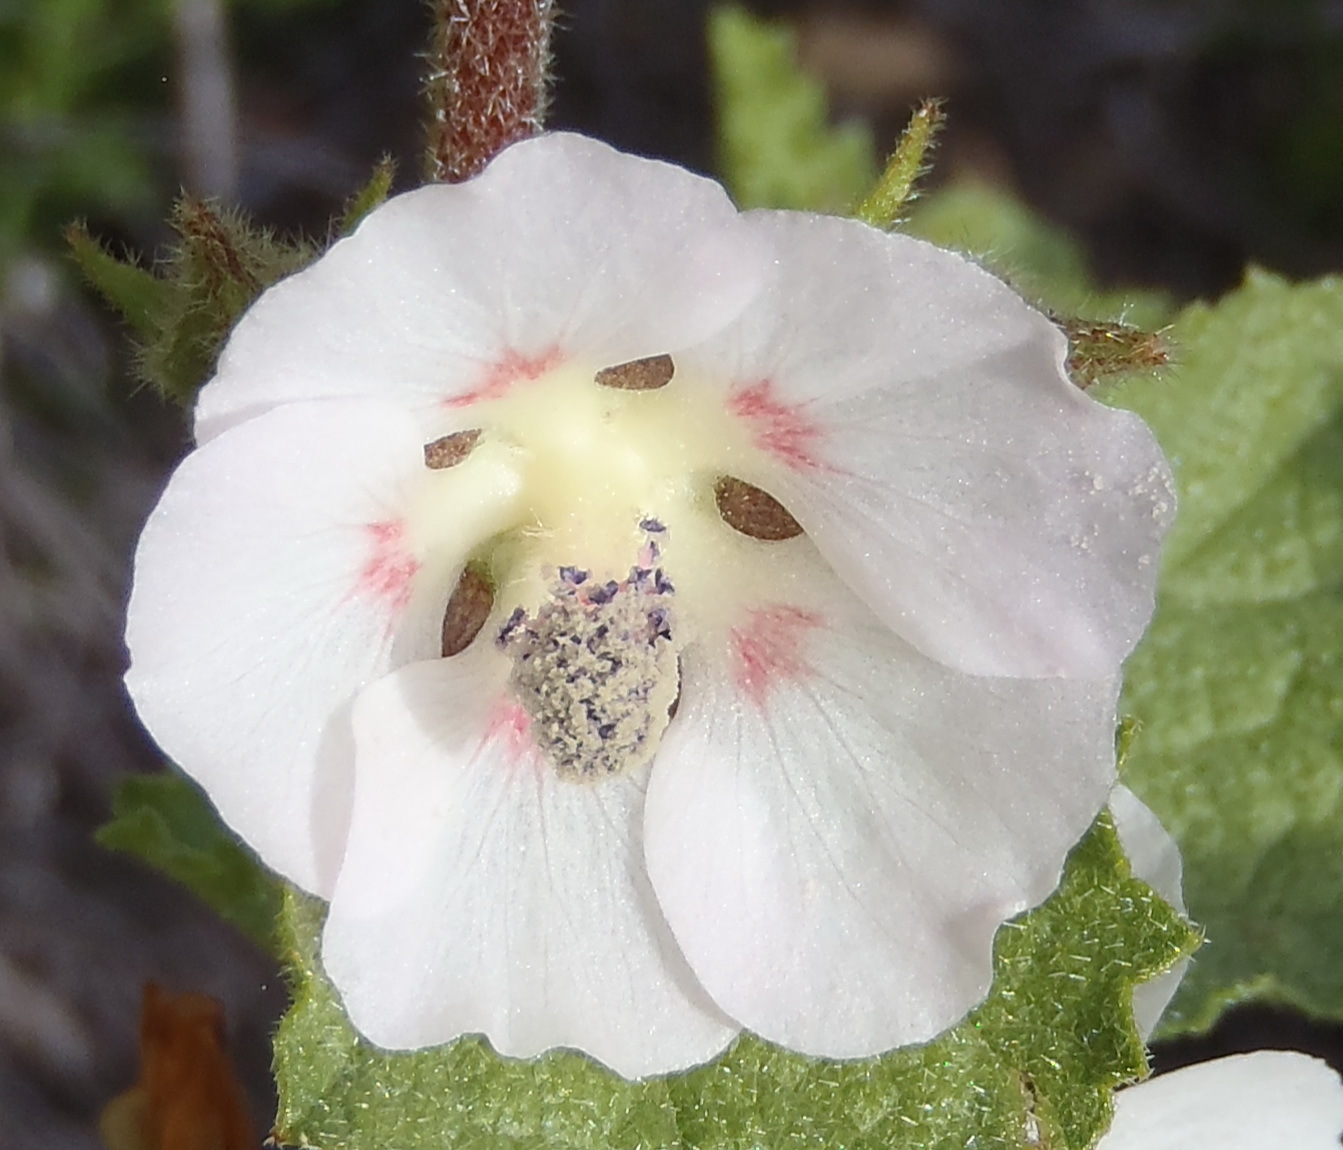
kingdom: Plantae
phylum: Tracheophyta
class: Magnoliopsida
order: Malvales
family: Malvaceae
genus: Anisodontea
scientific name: Anisodontea triloba
